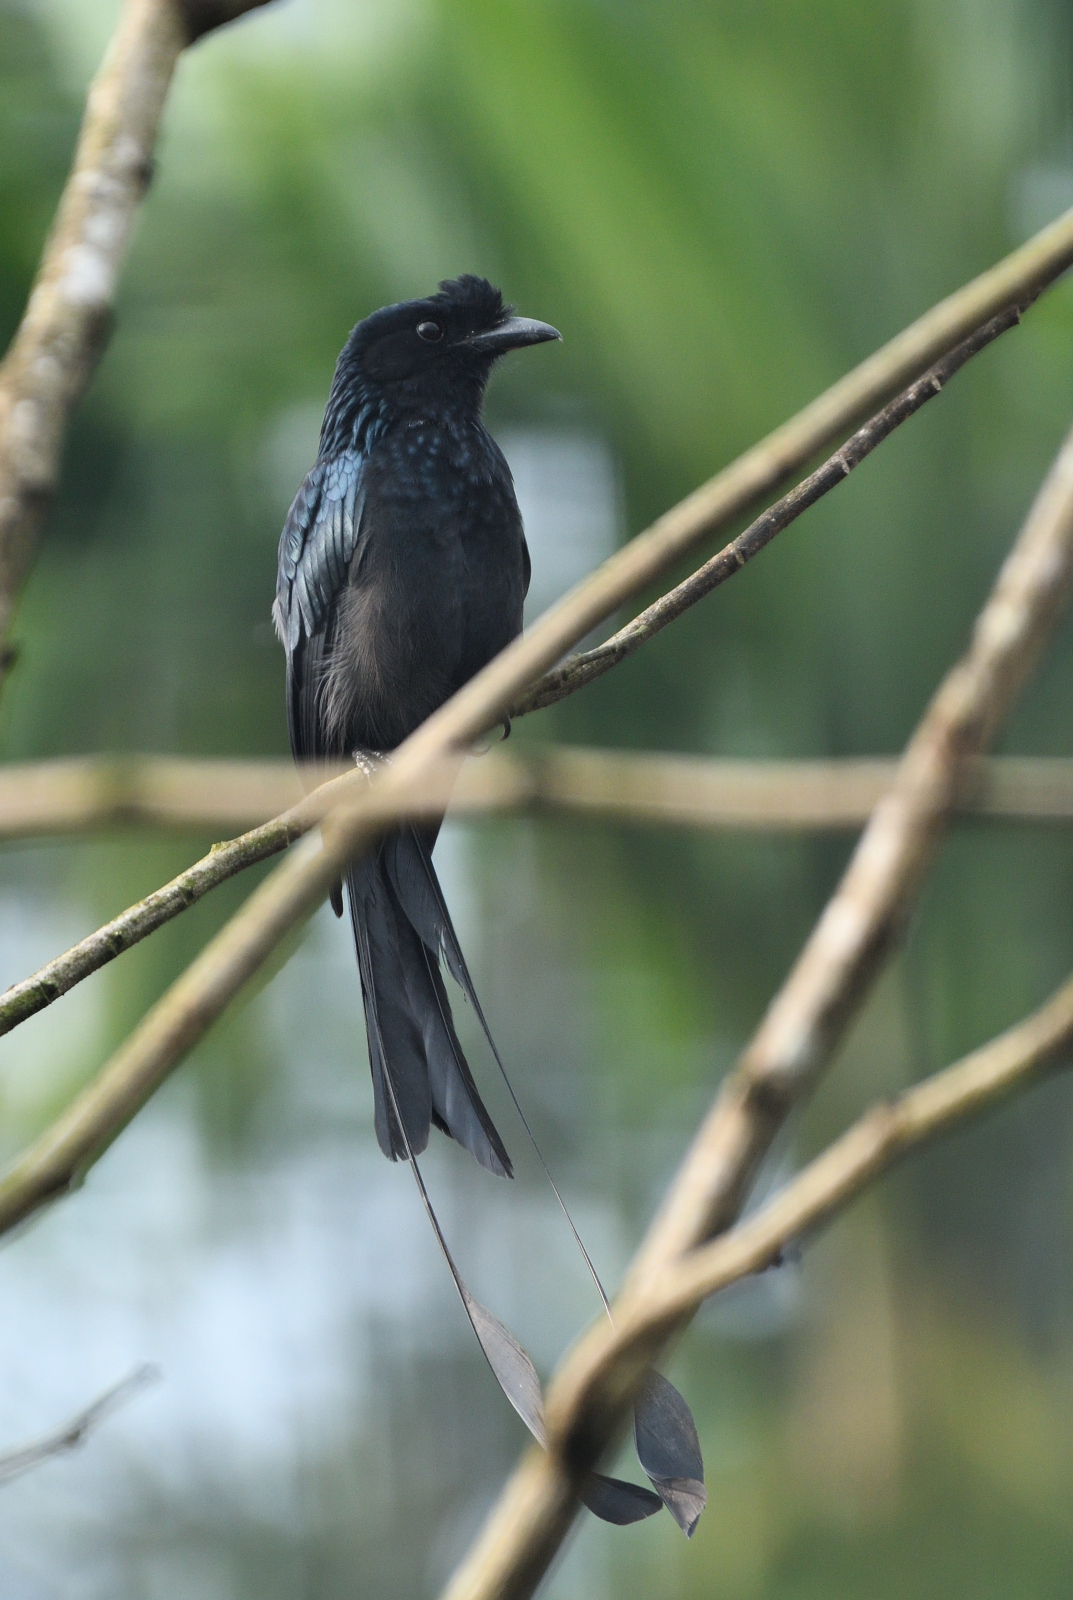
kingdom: Animalia
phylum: Chordata
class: Aves
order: Passeriformes
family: Dicruridae
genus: Dicrurus
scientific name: Dicrurus paradiseus
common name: Greater racket-tailed drongo
